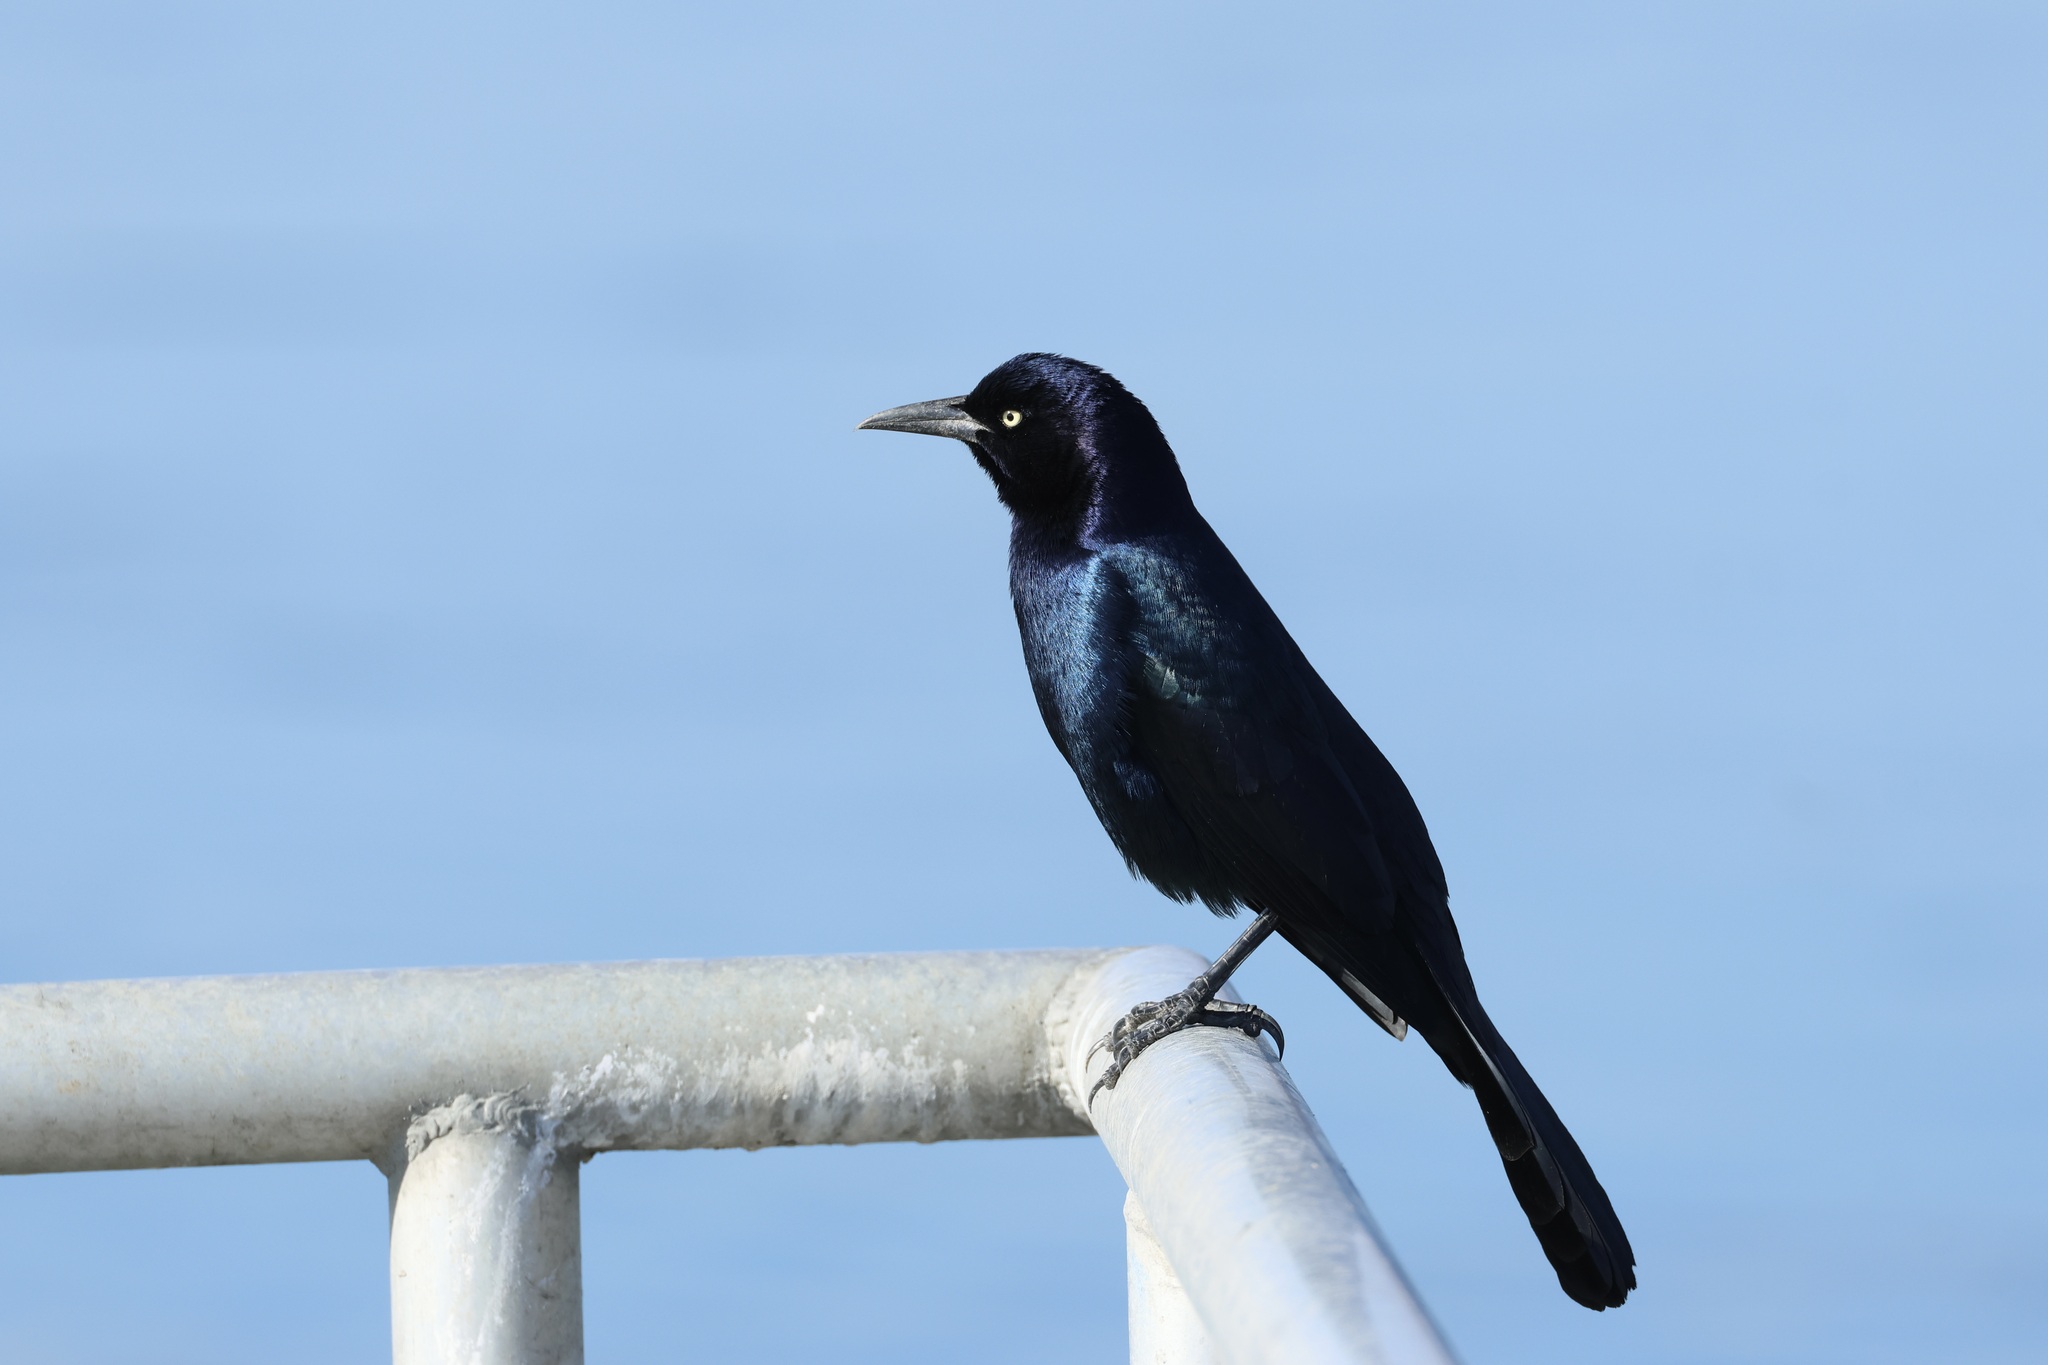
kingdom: Animalia
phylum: Chordata
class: Aves
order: Passeriformes
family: Icteridae
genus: Quiscalus
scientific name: Quiscalus major
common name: Boat-tailed grackle
